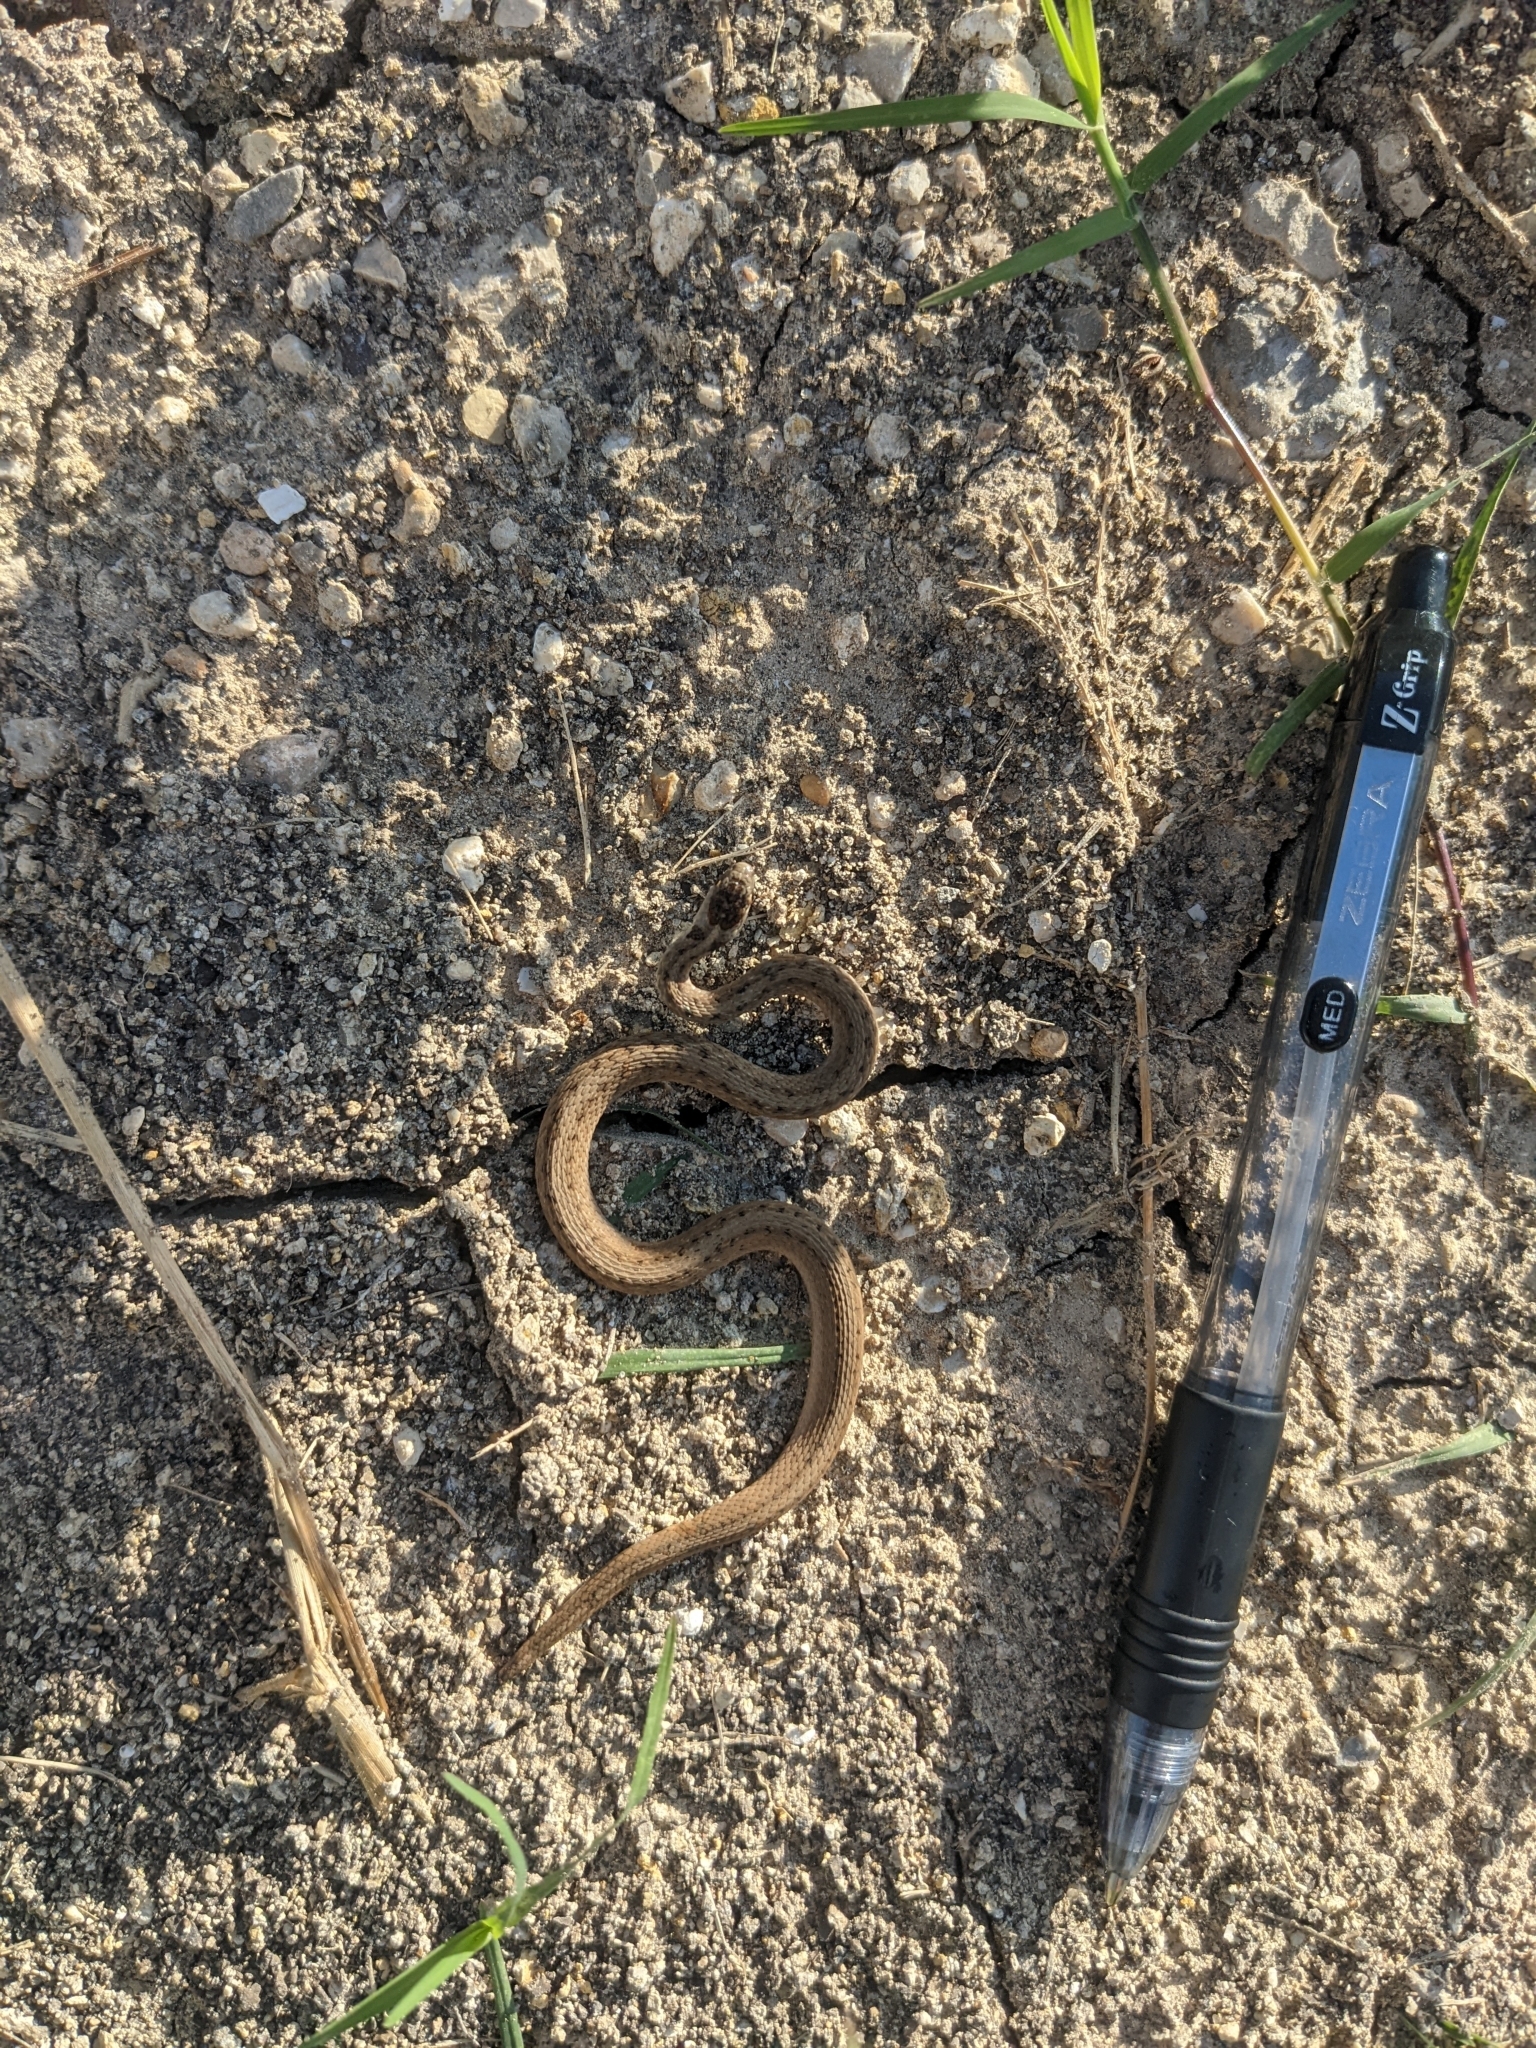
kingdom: Animalia
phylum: Chordata
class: Squamata
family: Colubridae
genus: Storeria
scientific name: Storeria dekayi
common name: (dekay’s) brown snake
